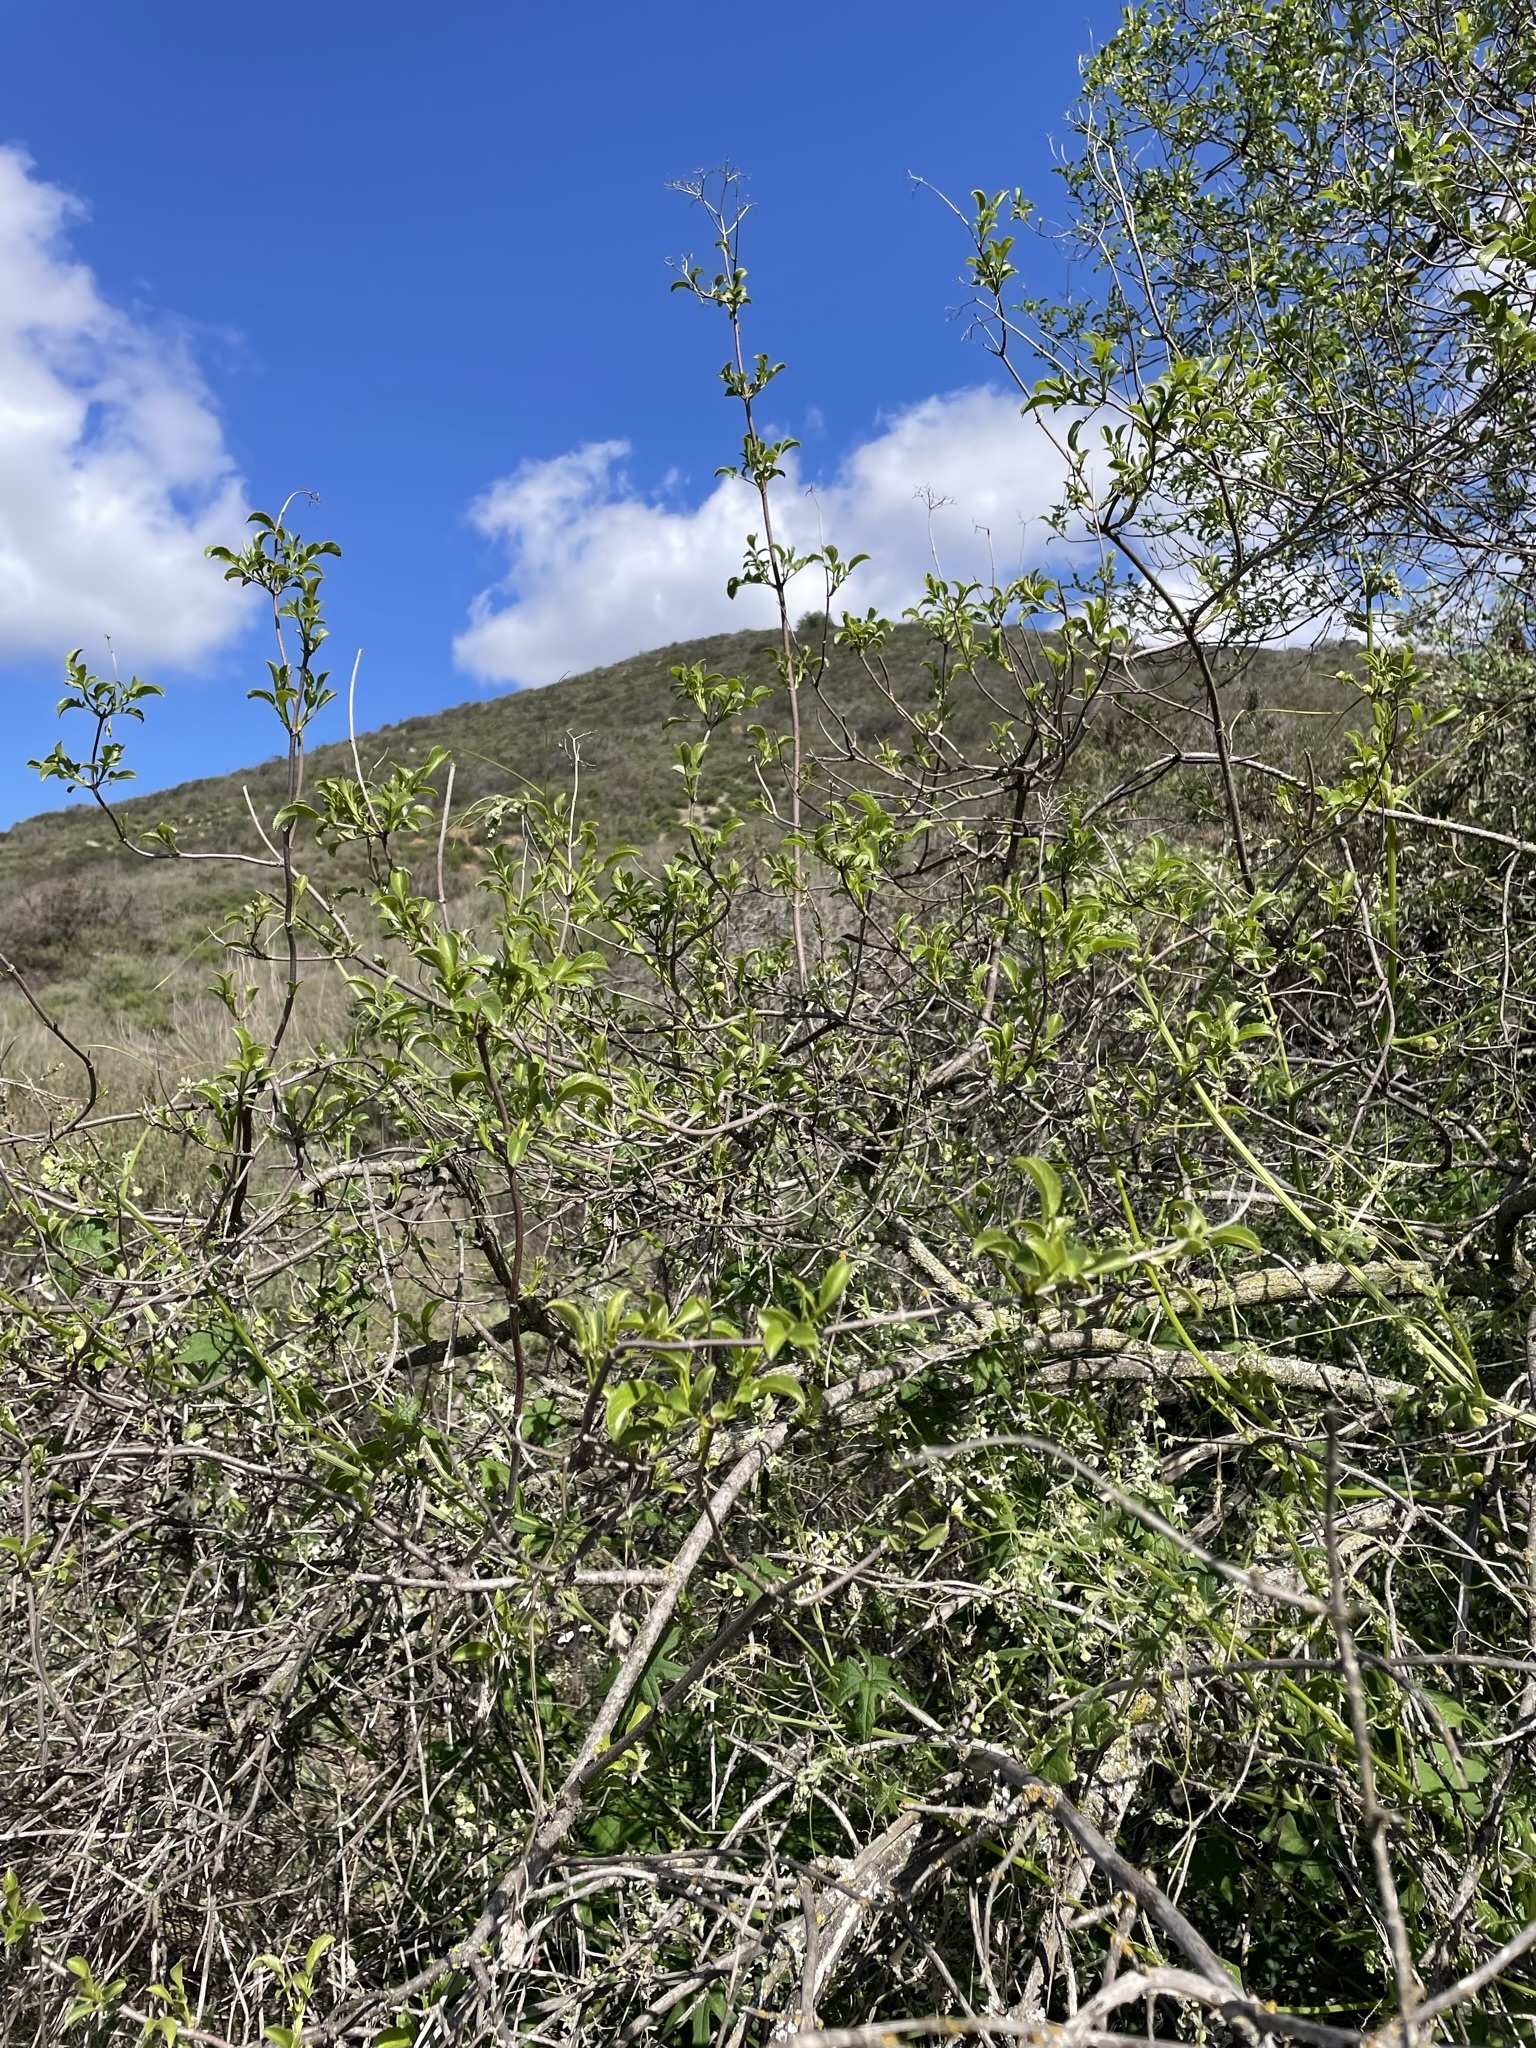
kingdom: Plantae
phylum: Tracheophyta
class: Magnoliopsida
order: Dipsacales
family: Viburnaceae
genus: Sambucus
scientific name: Sambucus cerulea
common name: Blue elder
